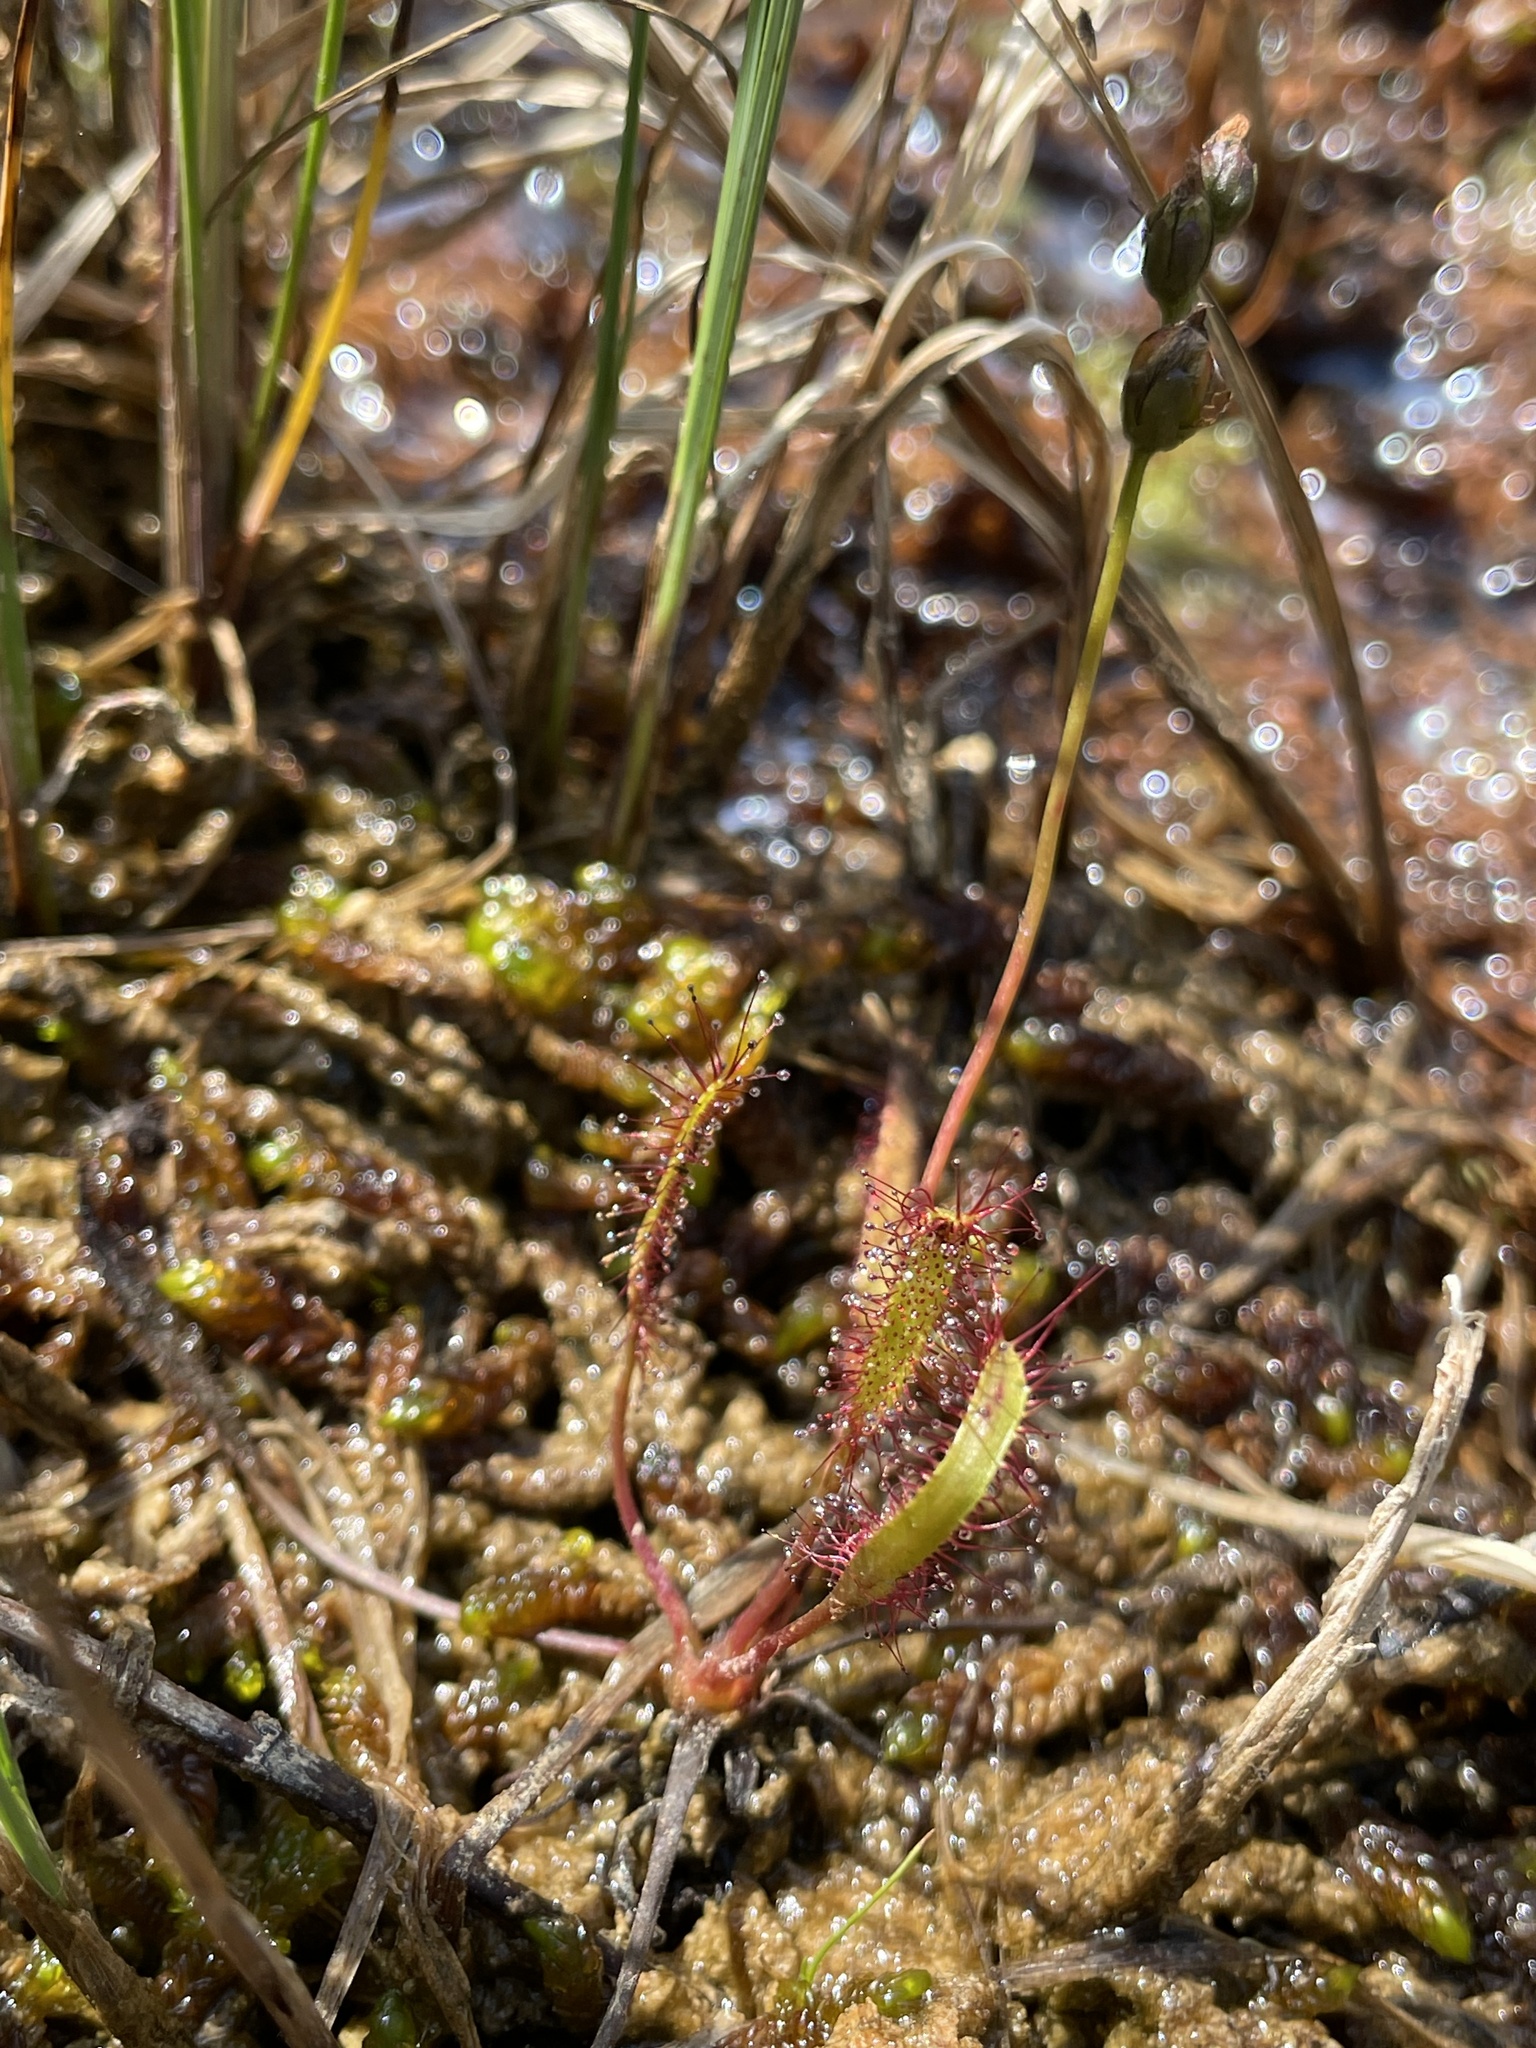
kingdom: Plantae
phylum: Tracheophyta
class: Magnoliopsida
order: Caryophyllales
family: Droseraceae
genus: Drosera
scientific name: Drosera linearis
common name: Linear-leaved sundew
